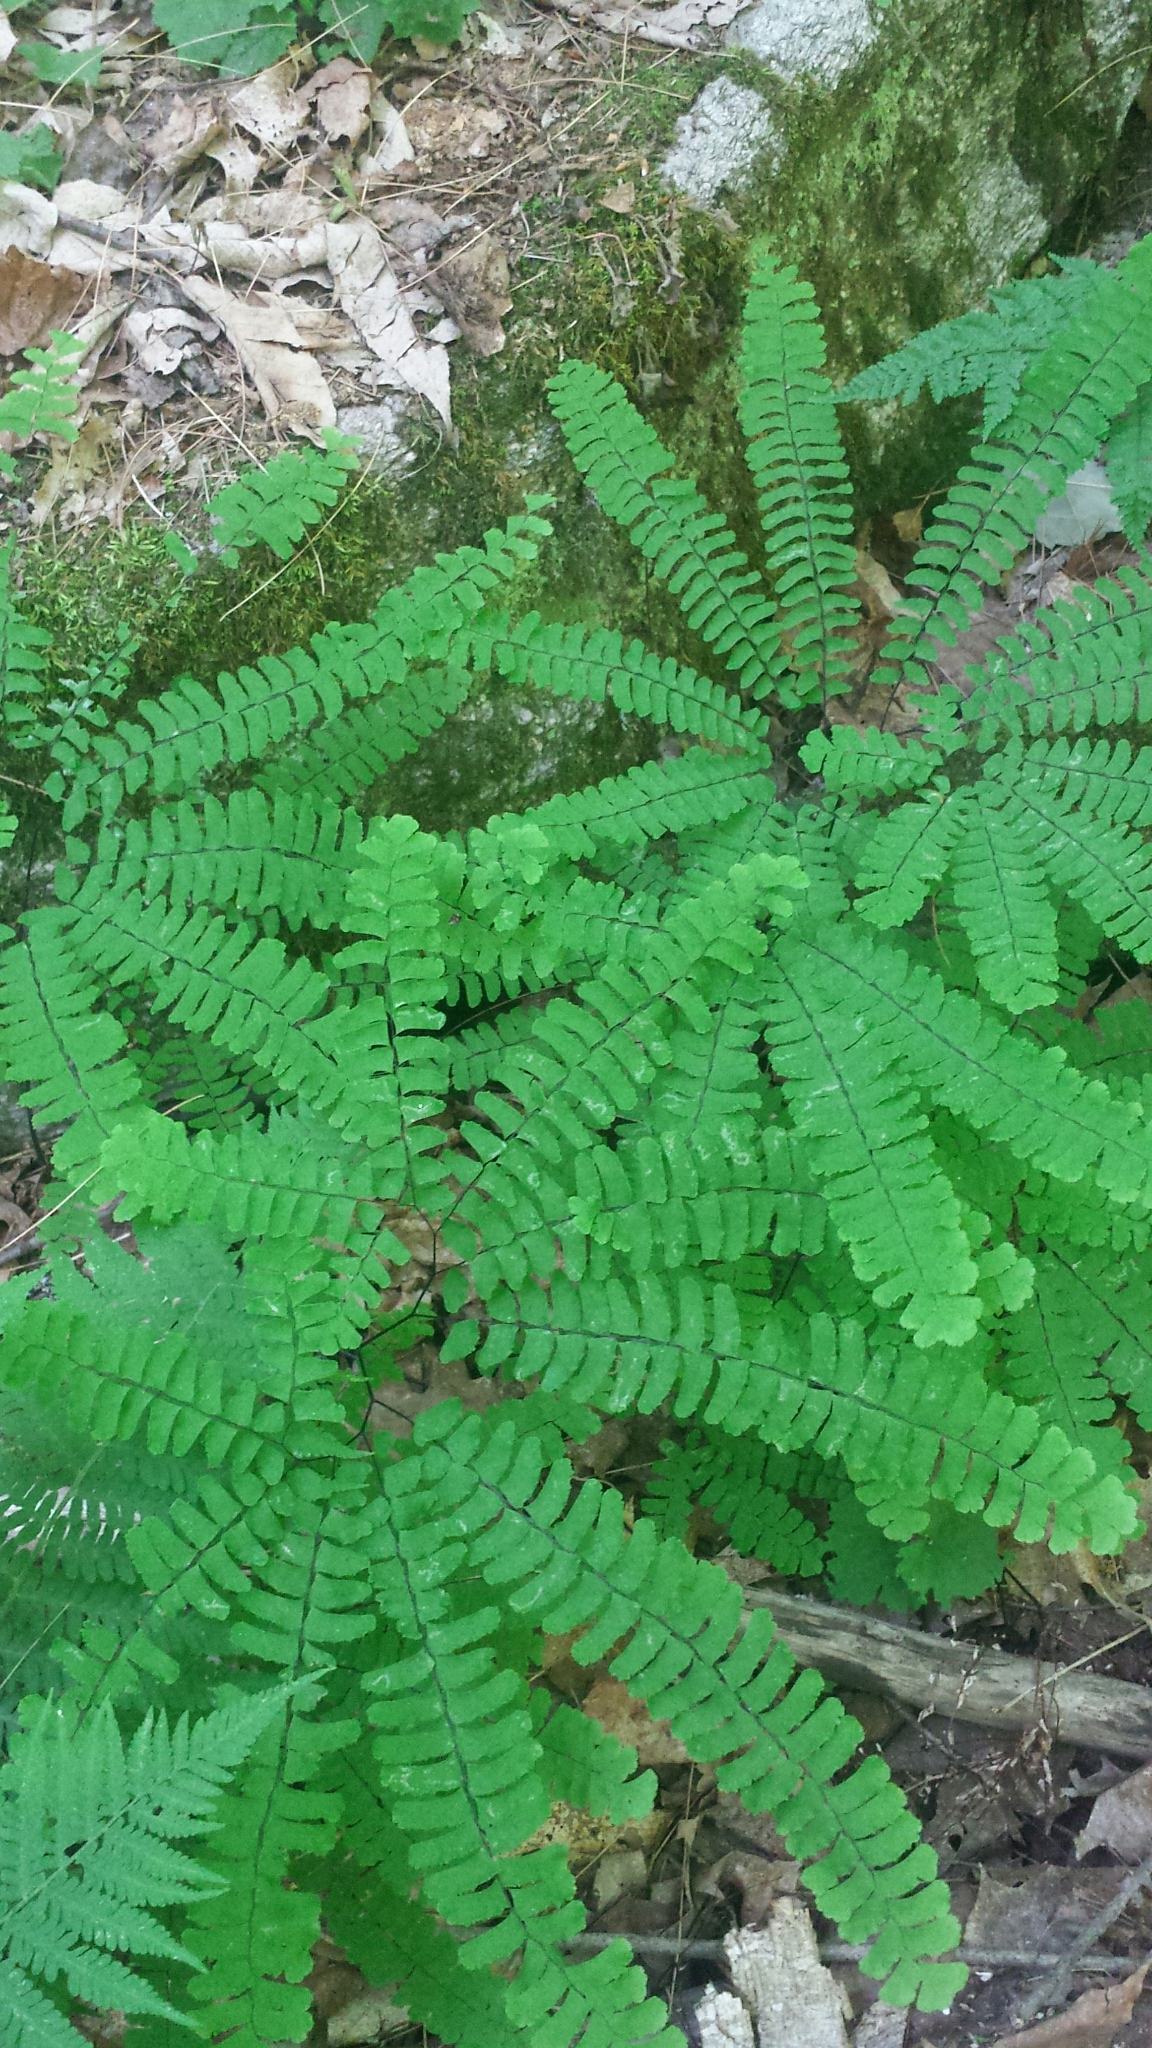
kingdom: Plantae
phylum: Tracheophyta
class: Polypodiopsida
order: Polypodiales
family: Pteridaceae
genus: Adiantum
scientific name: Adiantum pedatum
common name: Five-finger fern
